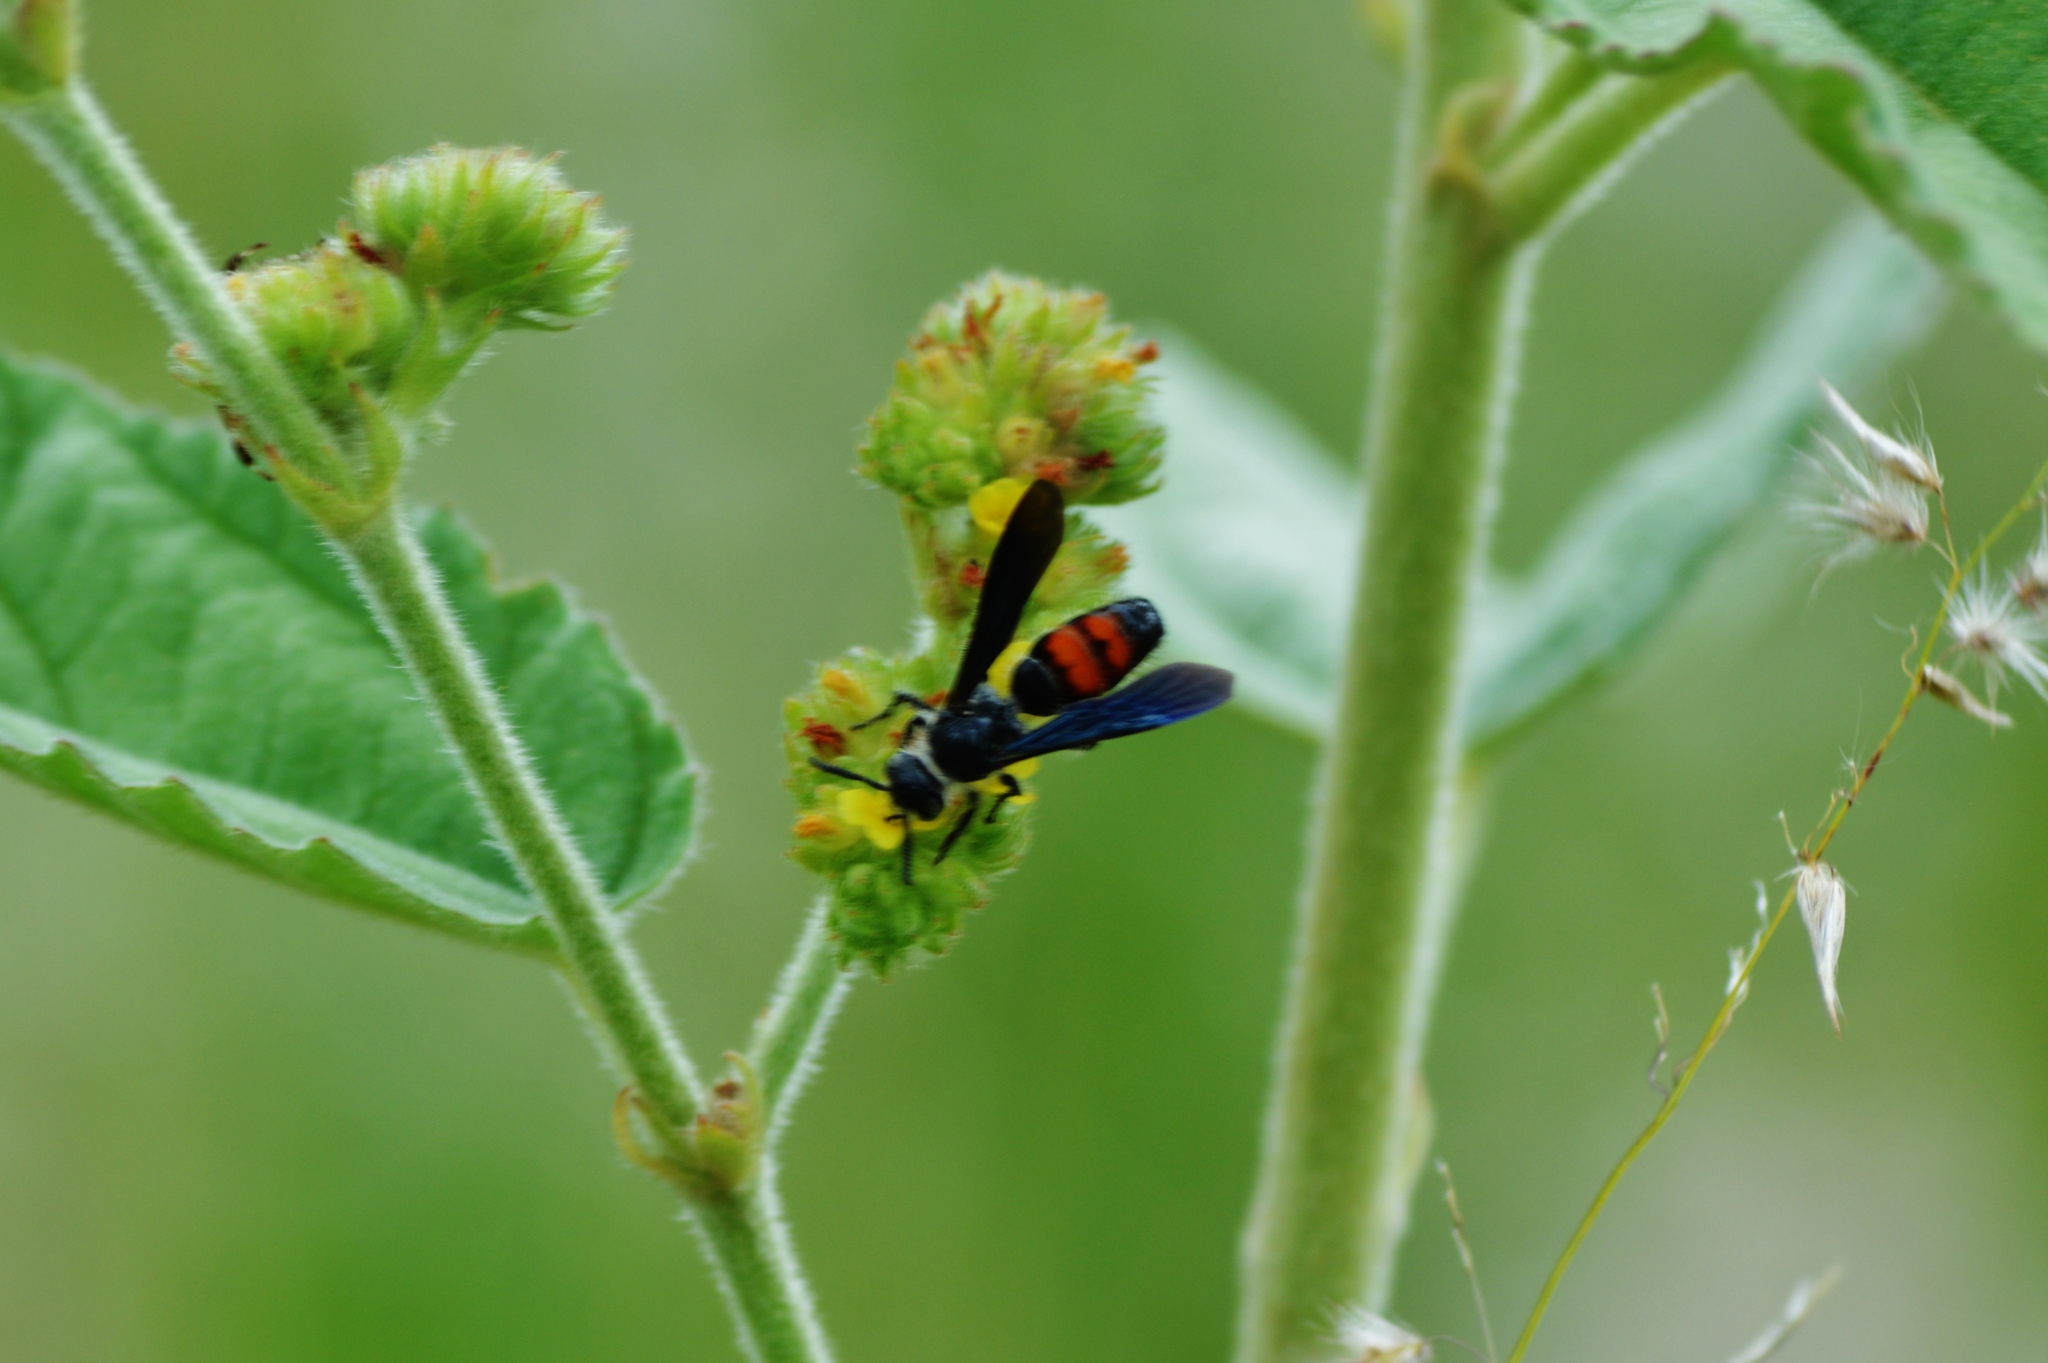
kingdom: Animalia
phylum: Arthropoda
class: Insecta
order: Hymenoptera
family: Scoliidae
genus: Dielis
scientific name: Dielis dorsata
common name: Scoliid wasp
